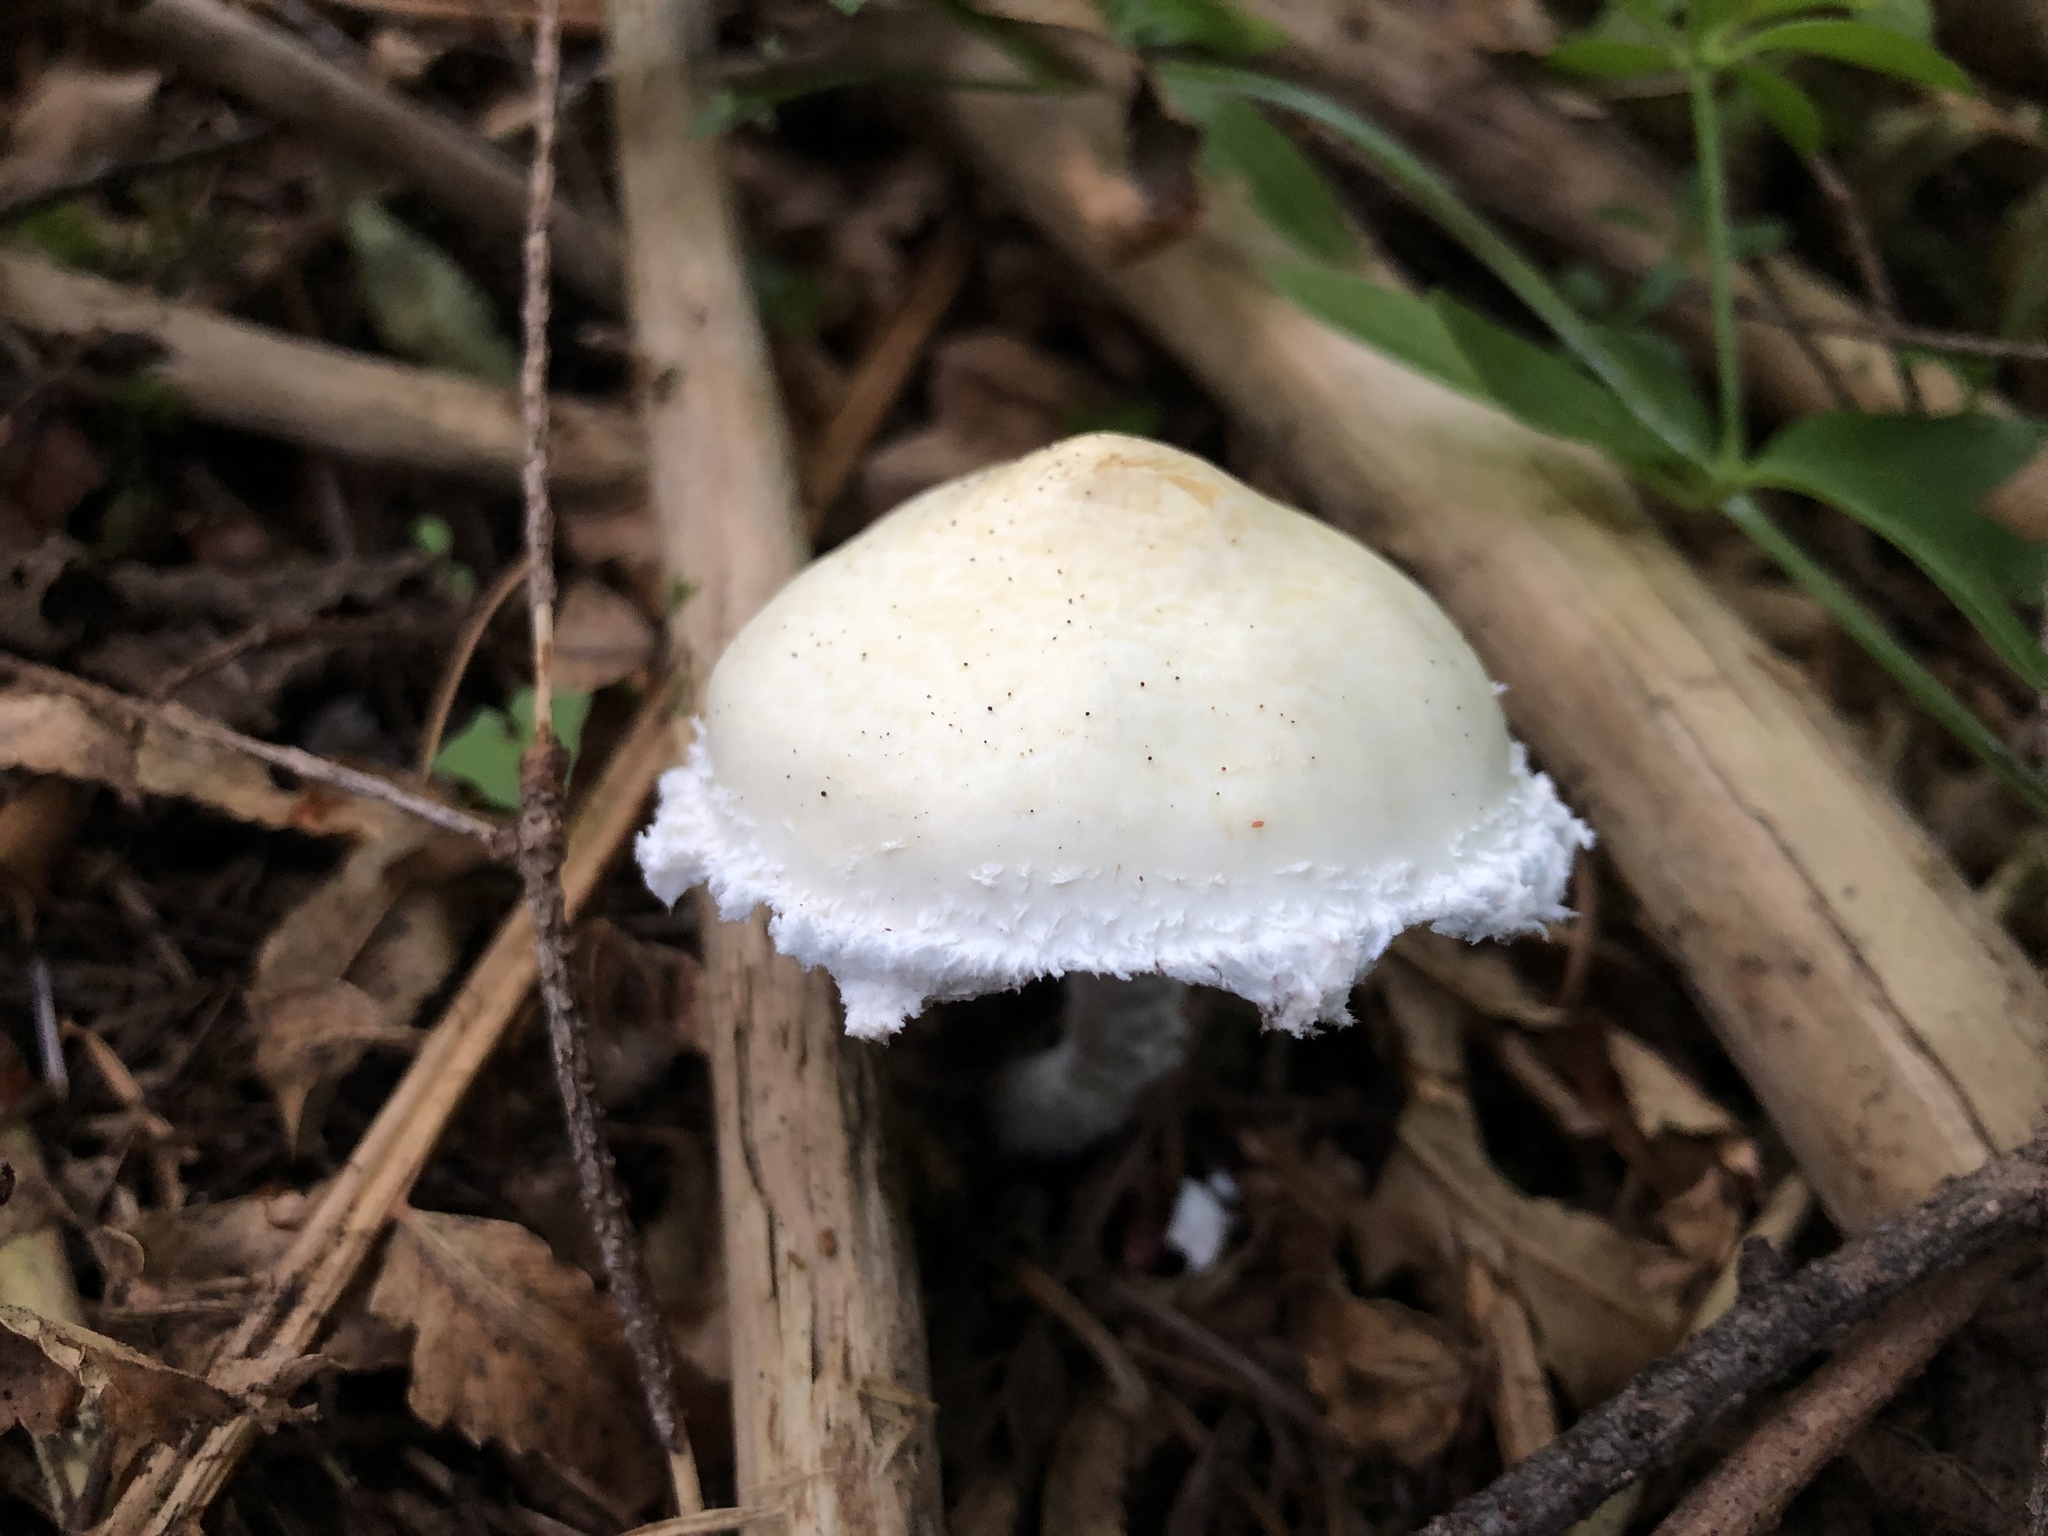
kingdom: Fungi
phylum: Basidiomycota
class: Agaricomycetes
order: Agaricales
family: Strophariaceae
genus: Stropharia
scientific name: Stropharia ambigua
